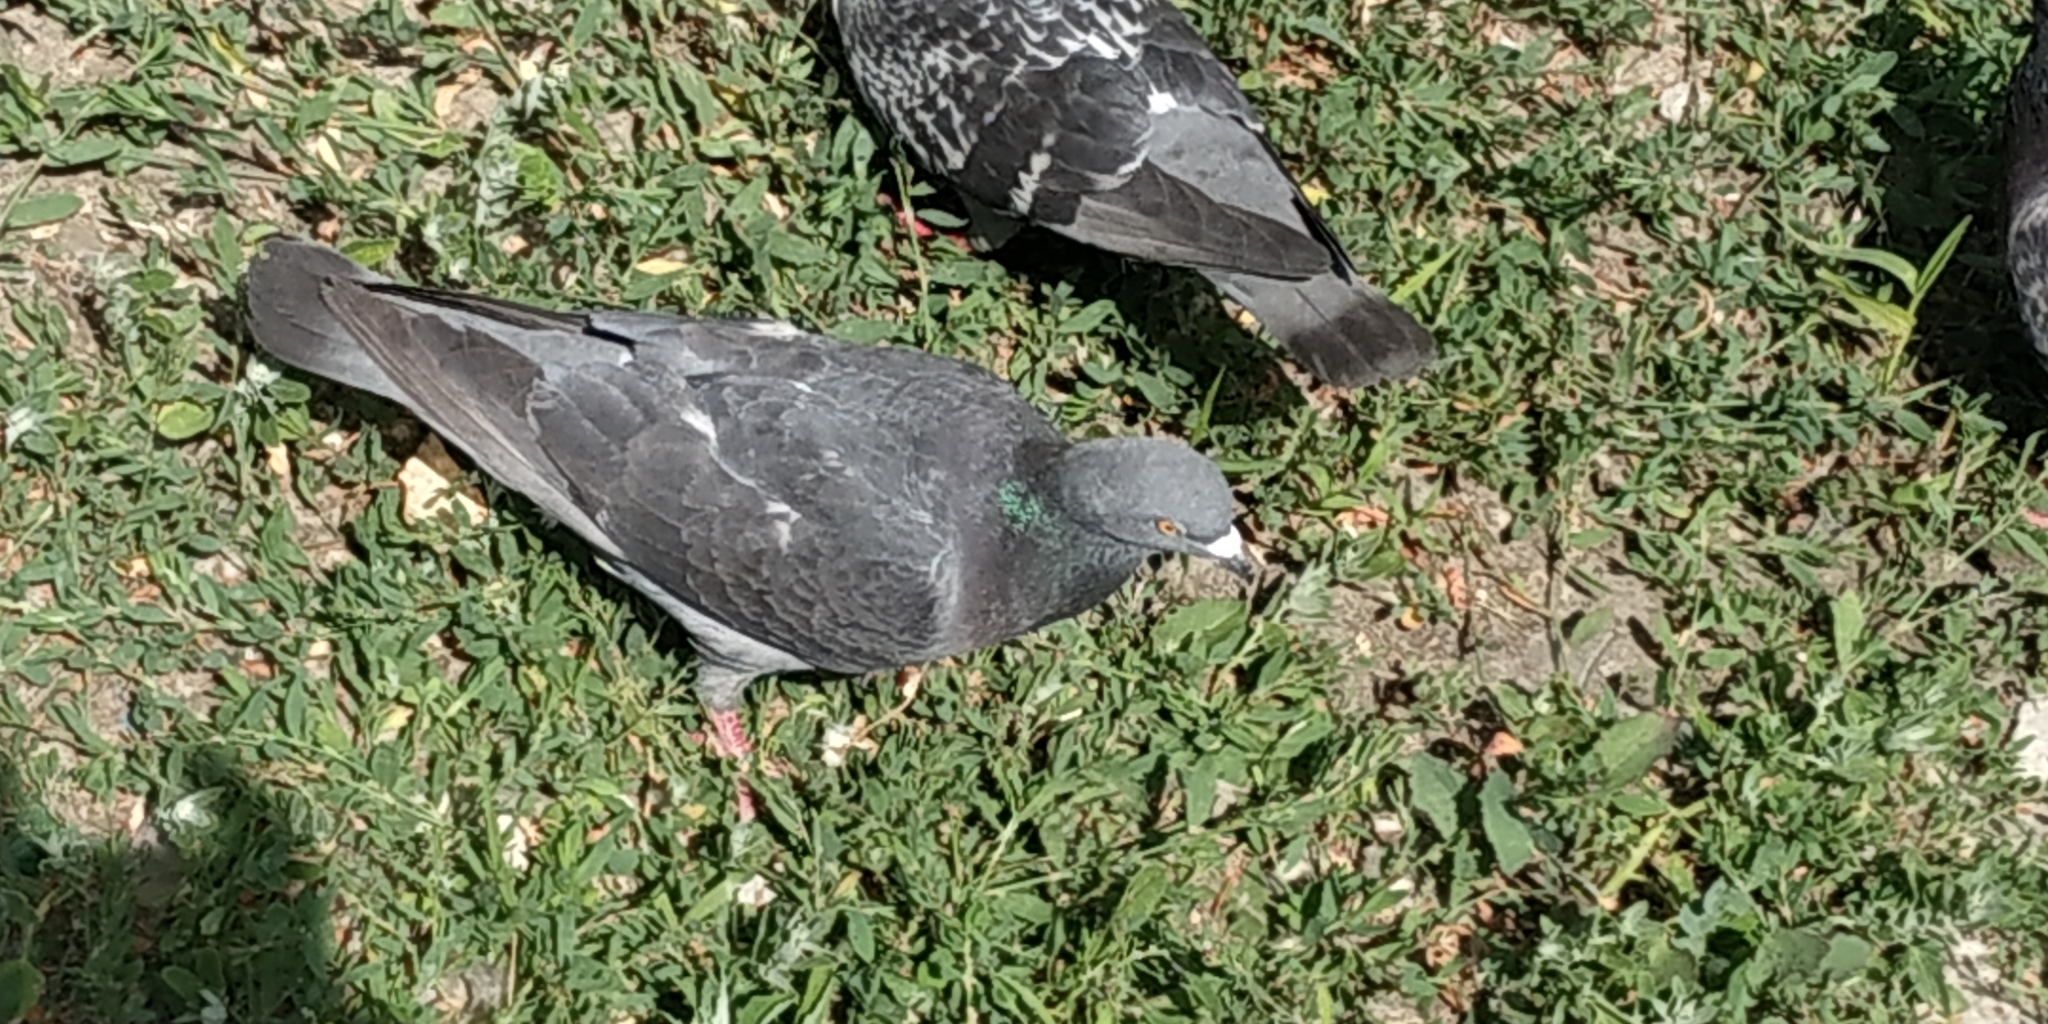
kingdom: Animalia
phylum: Chordata
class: Aves
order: Columbiformes
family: Columbidae
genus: Columba
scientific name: Columba livia
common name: Rock pigeon
